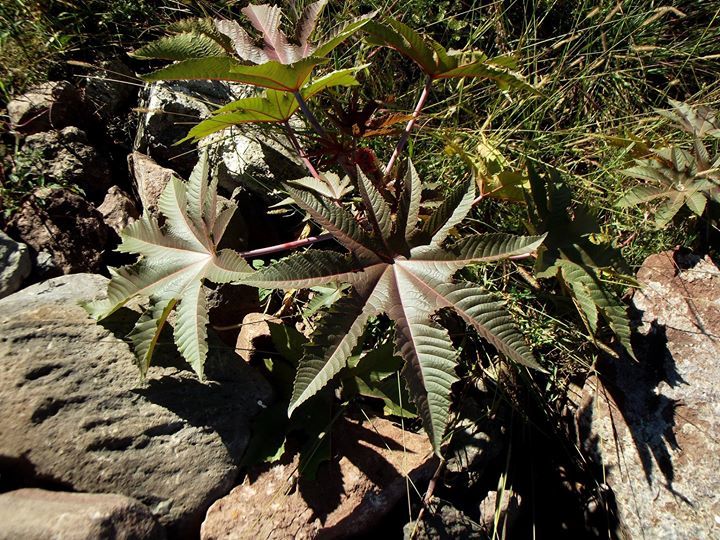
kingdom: Plantae
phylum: Tracheophyta
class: Magnoliopsida
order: Malpighiales
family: Euphorbiaceae
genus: Ricinus
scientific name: Ricinus communis
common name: Castor-oil-plant
